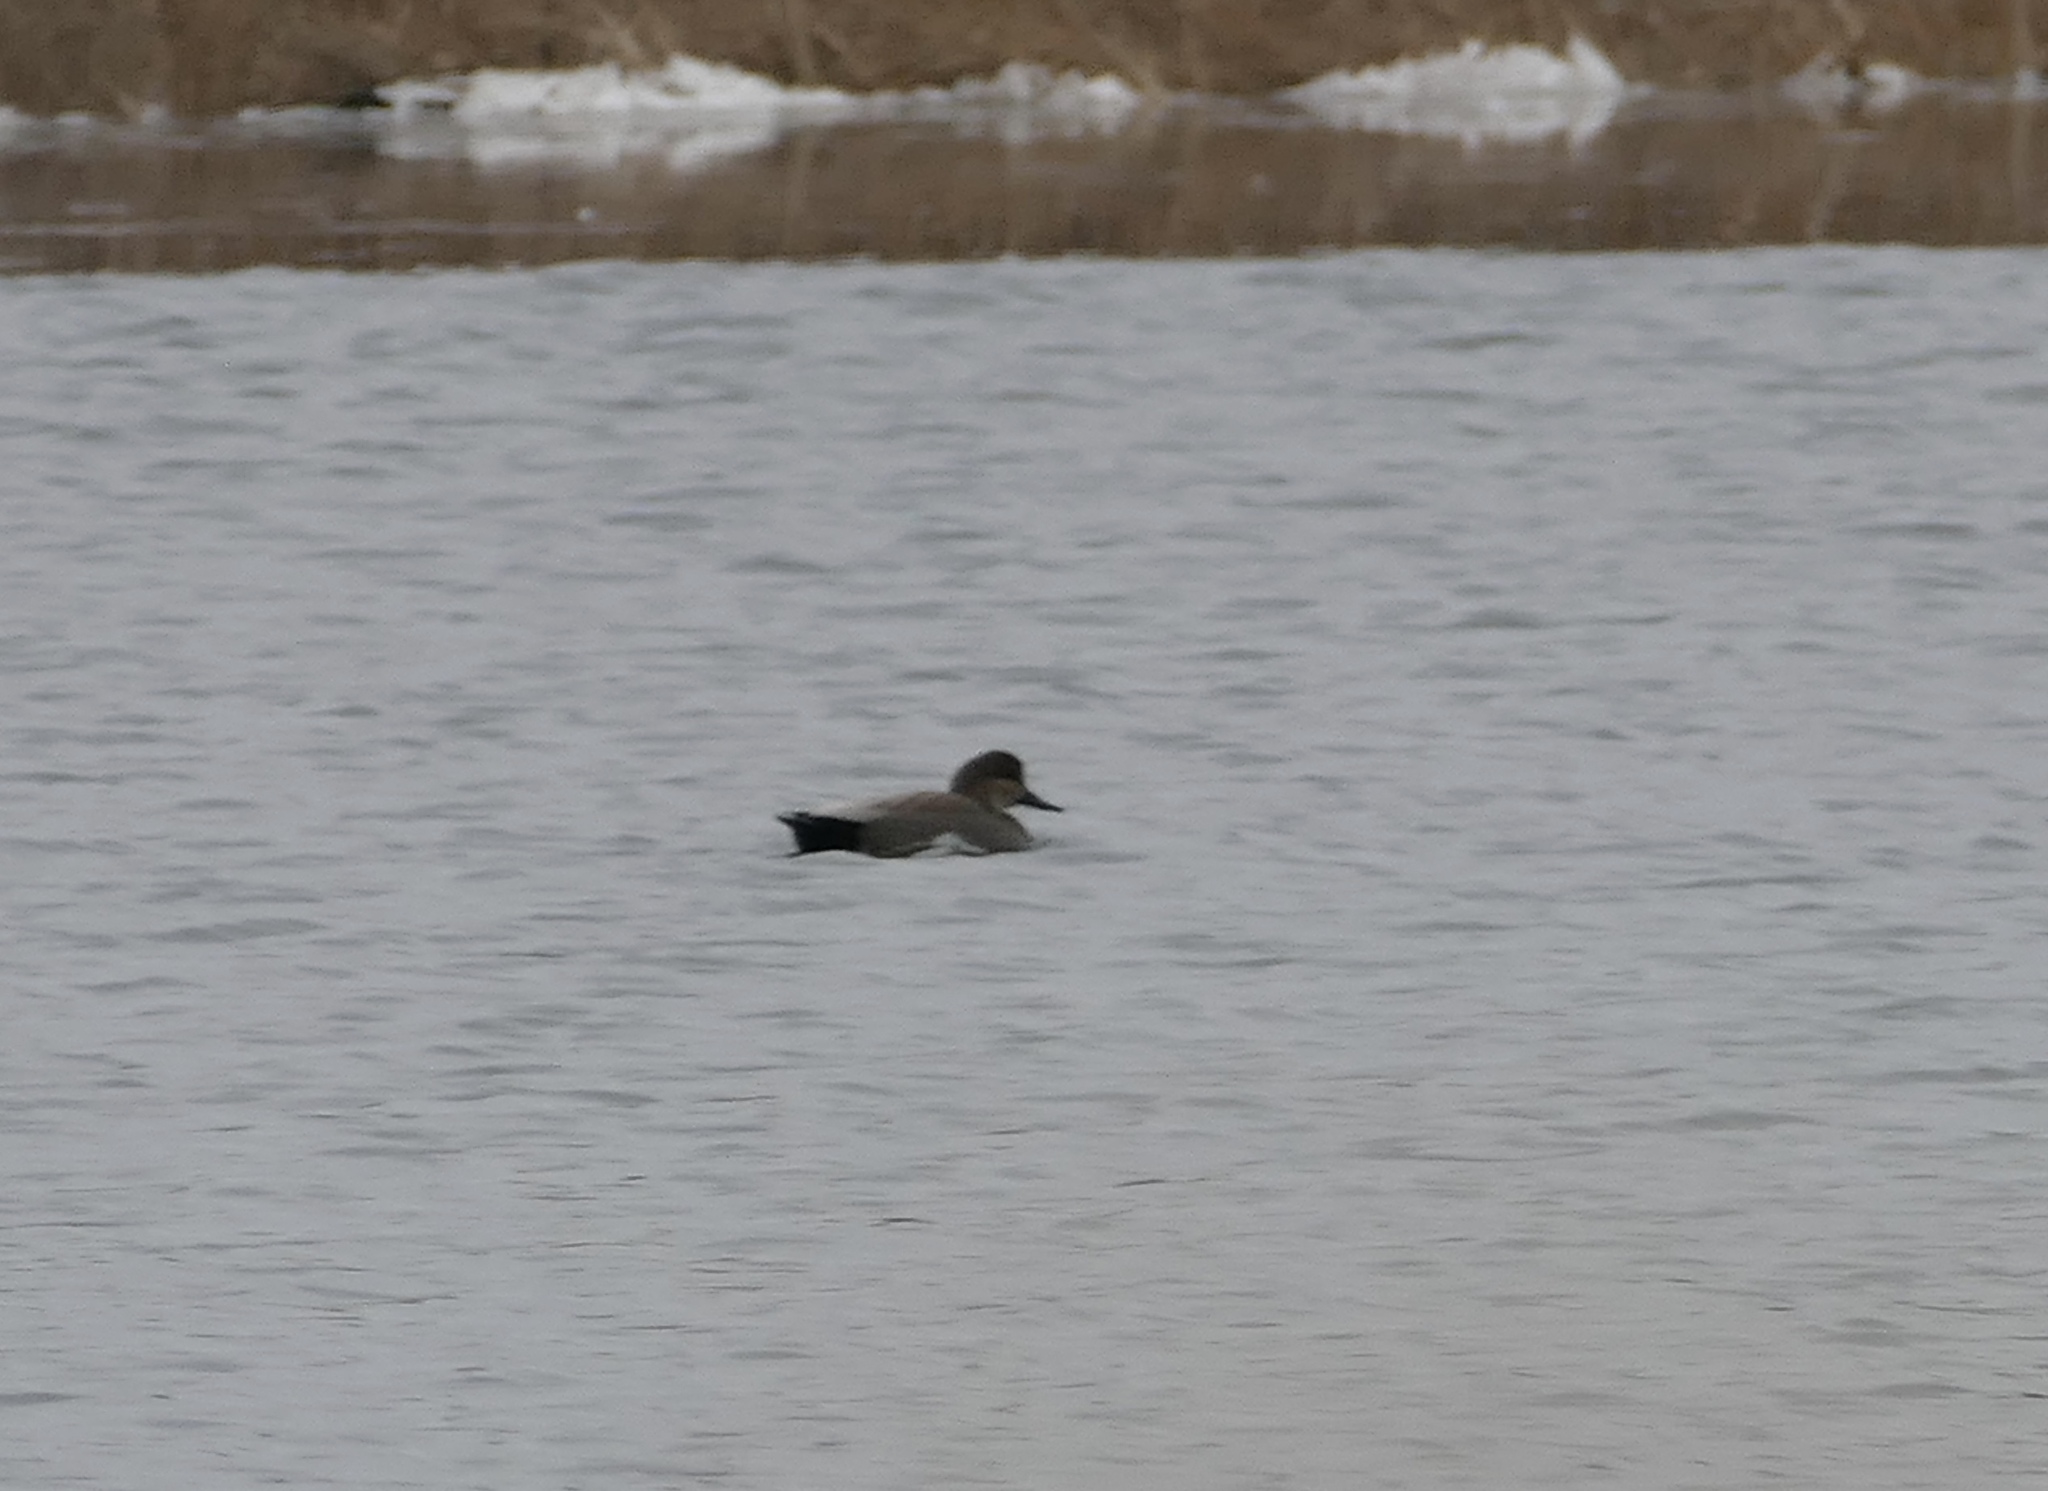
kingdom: Animalia
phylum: Chordata
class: Aves
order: Anseriformes
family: Anatidae
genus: Mareca
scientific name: Mareca strepera
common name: Gadwall
